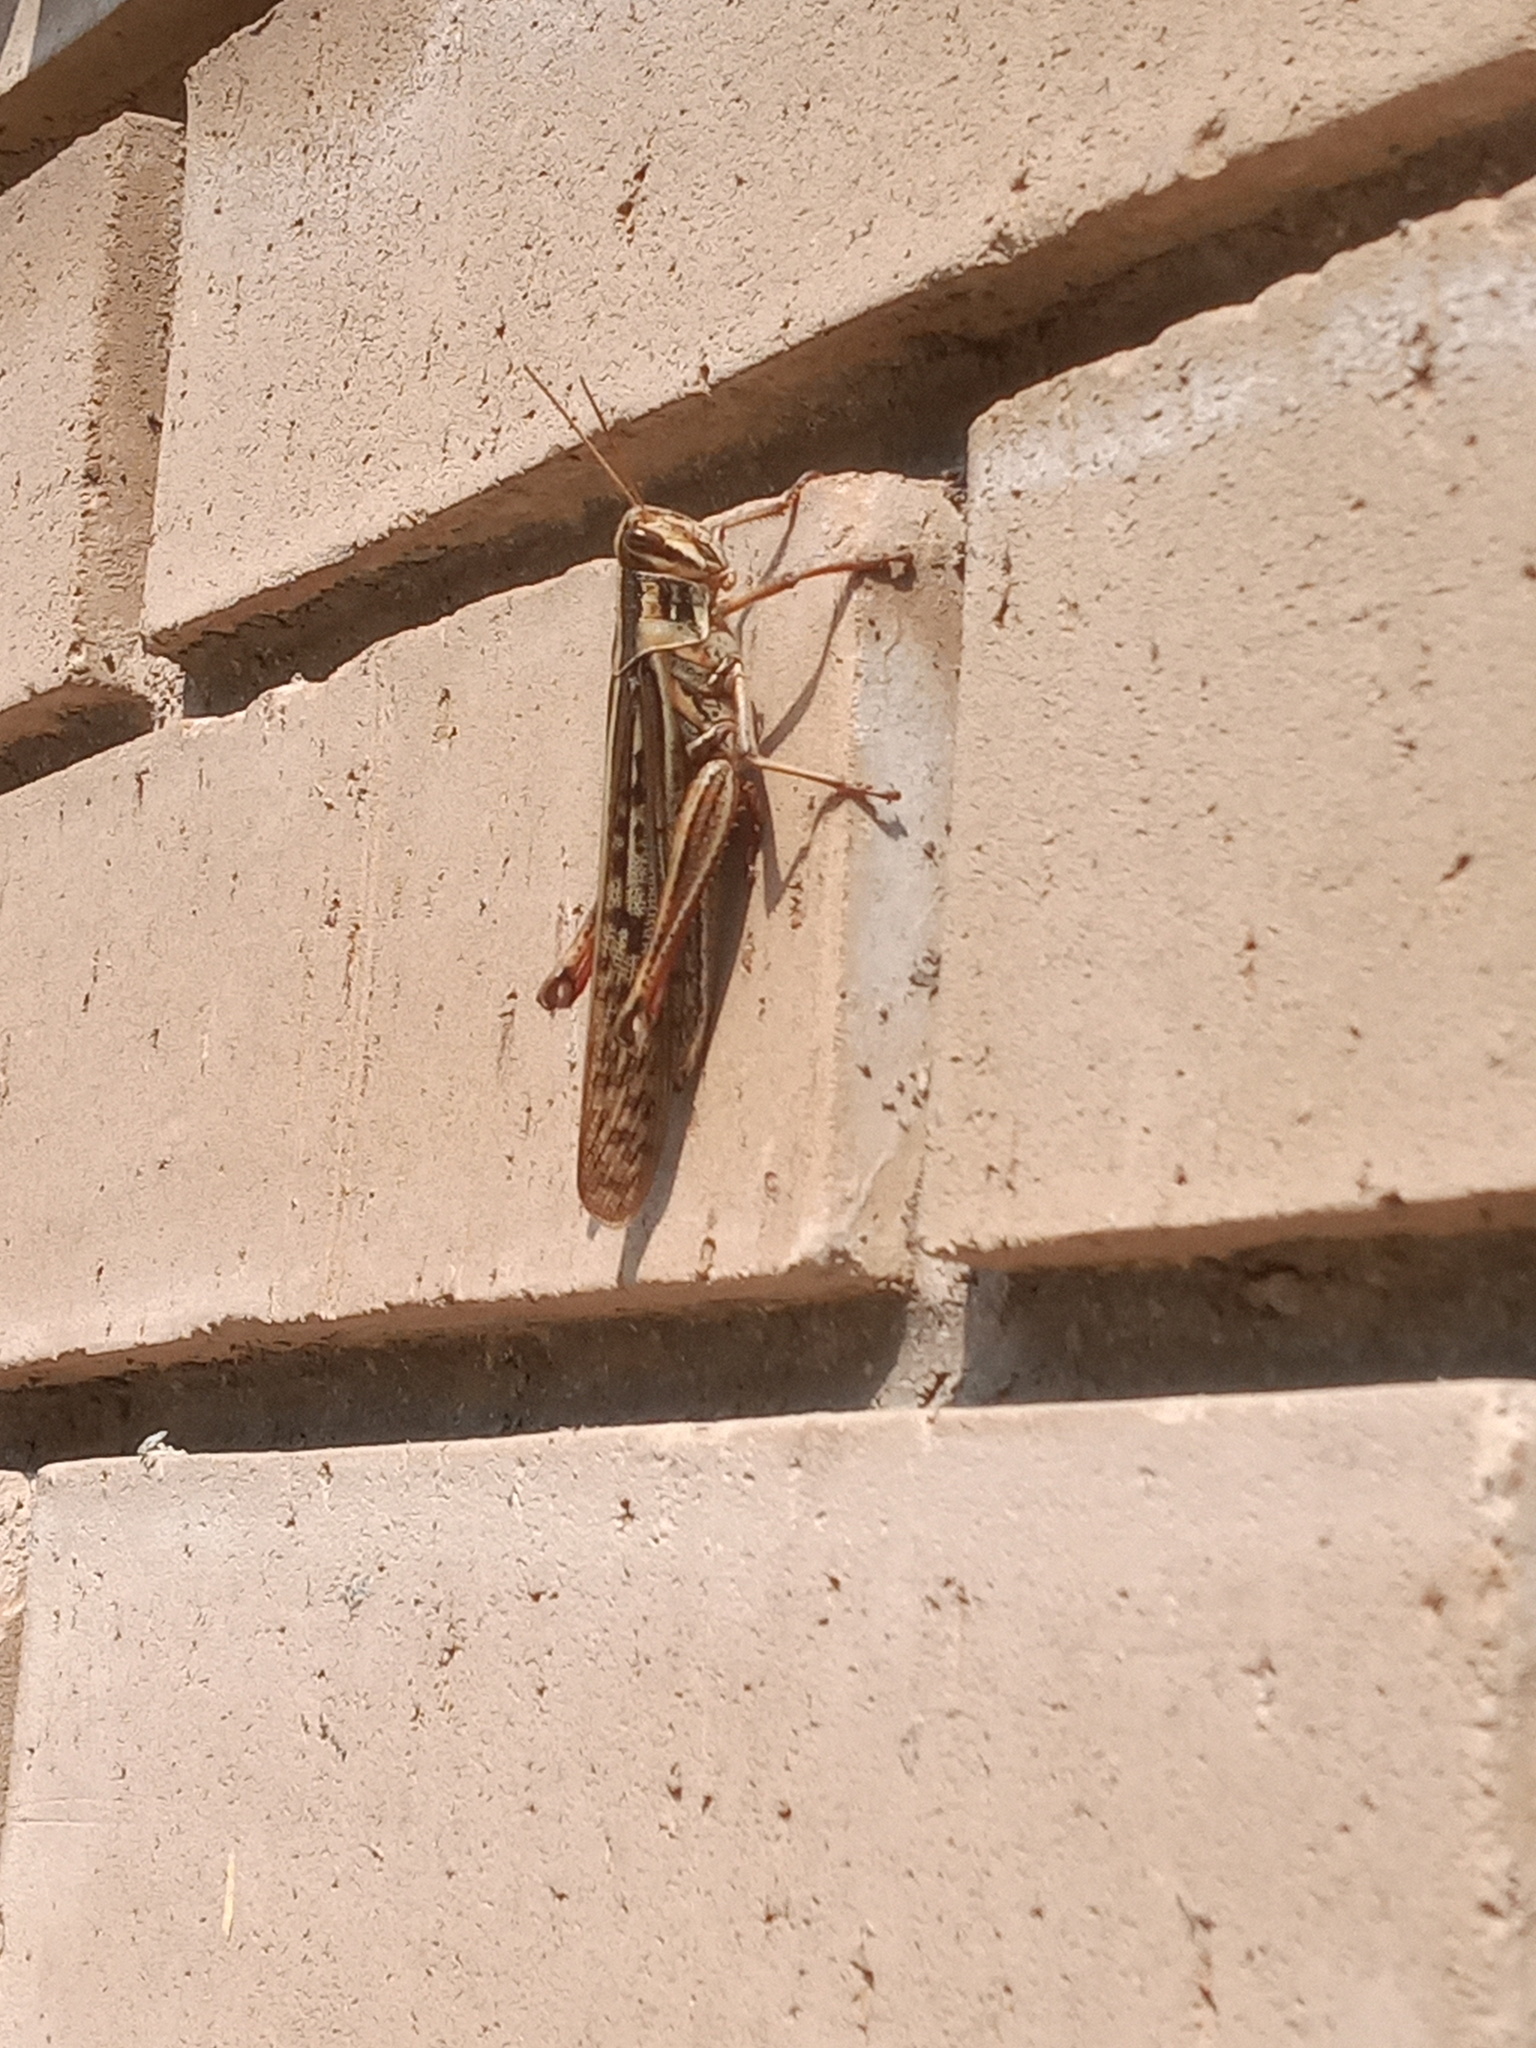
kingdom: Animalia
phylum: Arthropoda
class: Insecta
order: Orthoptera
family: Acrididae
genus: Schistocerca
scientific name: Schistocerca americana
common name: American bird locust
